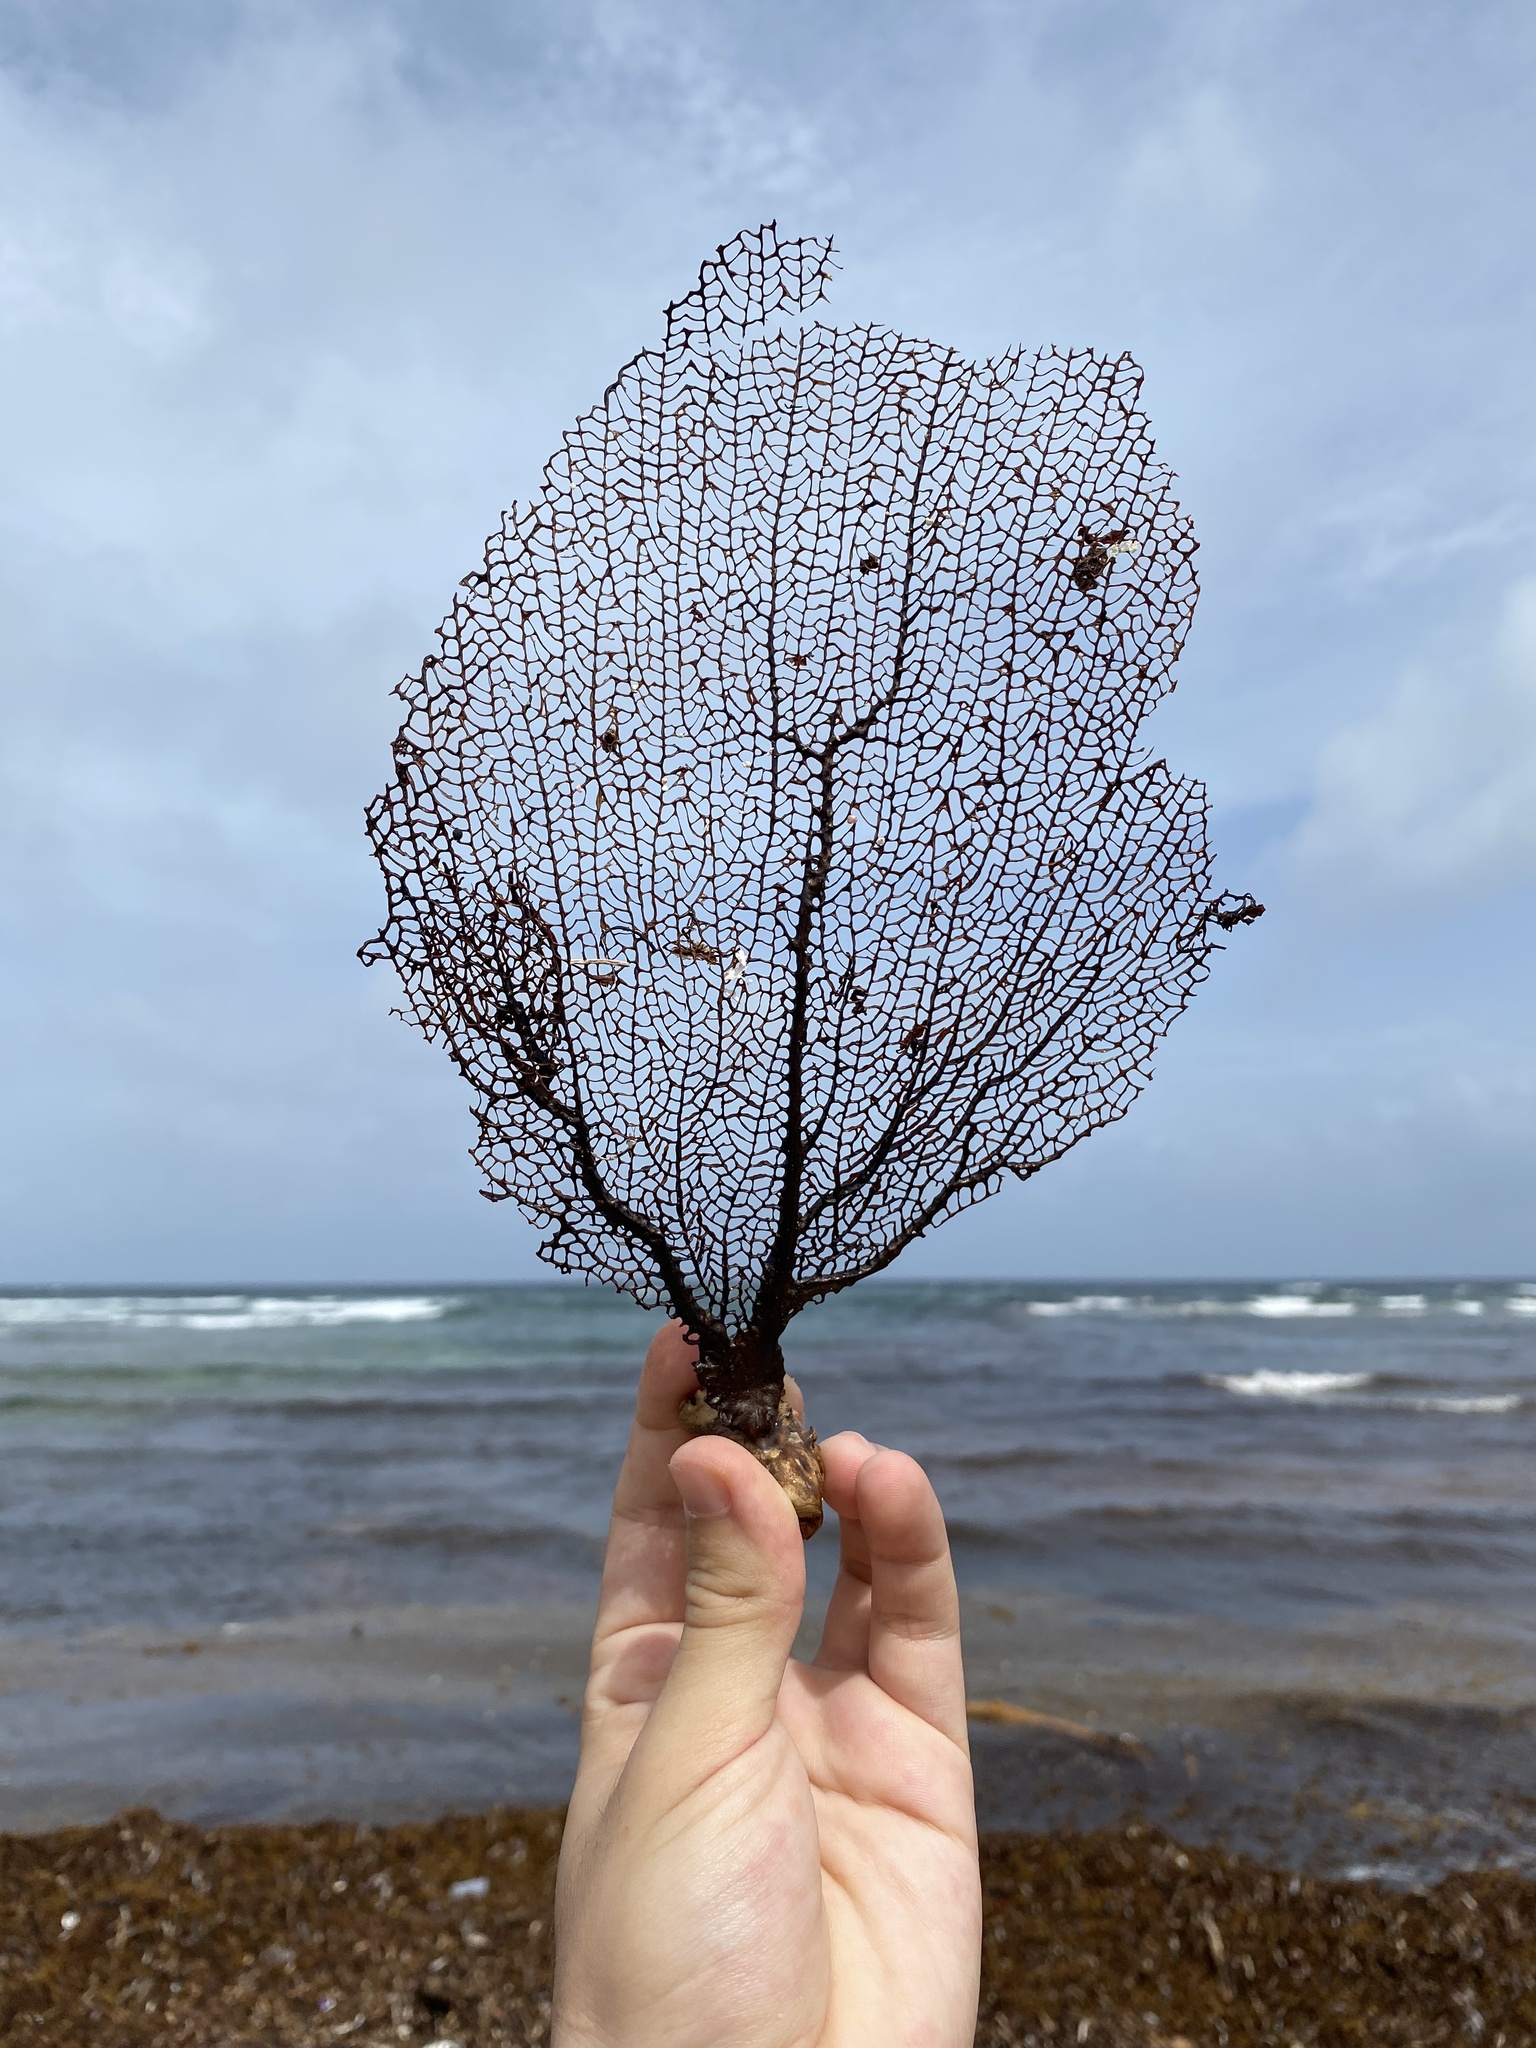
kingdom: Animalia
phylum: Cnidaria
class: Anthozoa
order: Malacalcyonacea
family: Gorgoniidae
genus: Gorgonia
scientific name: Gorgonia ventalina
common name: Common sea fan
